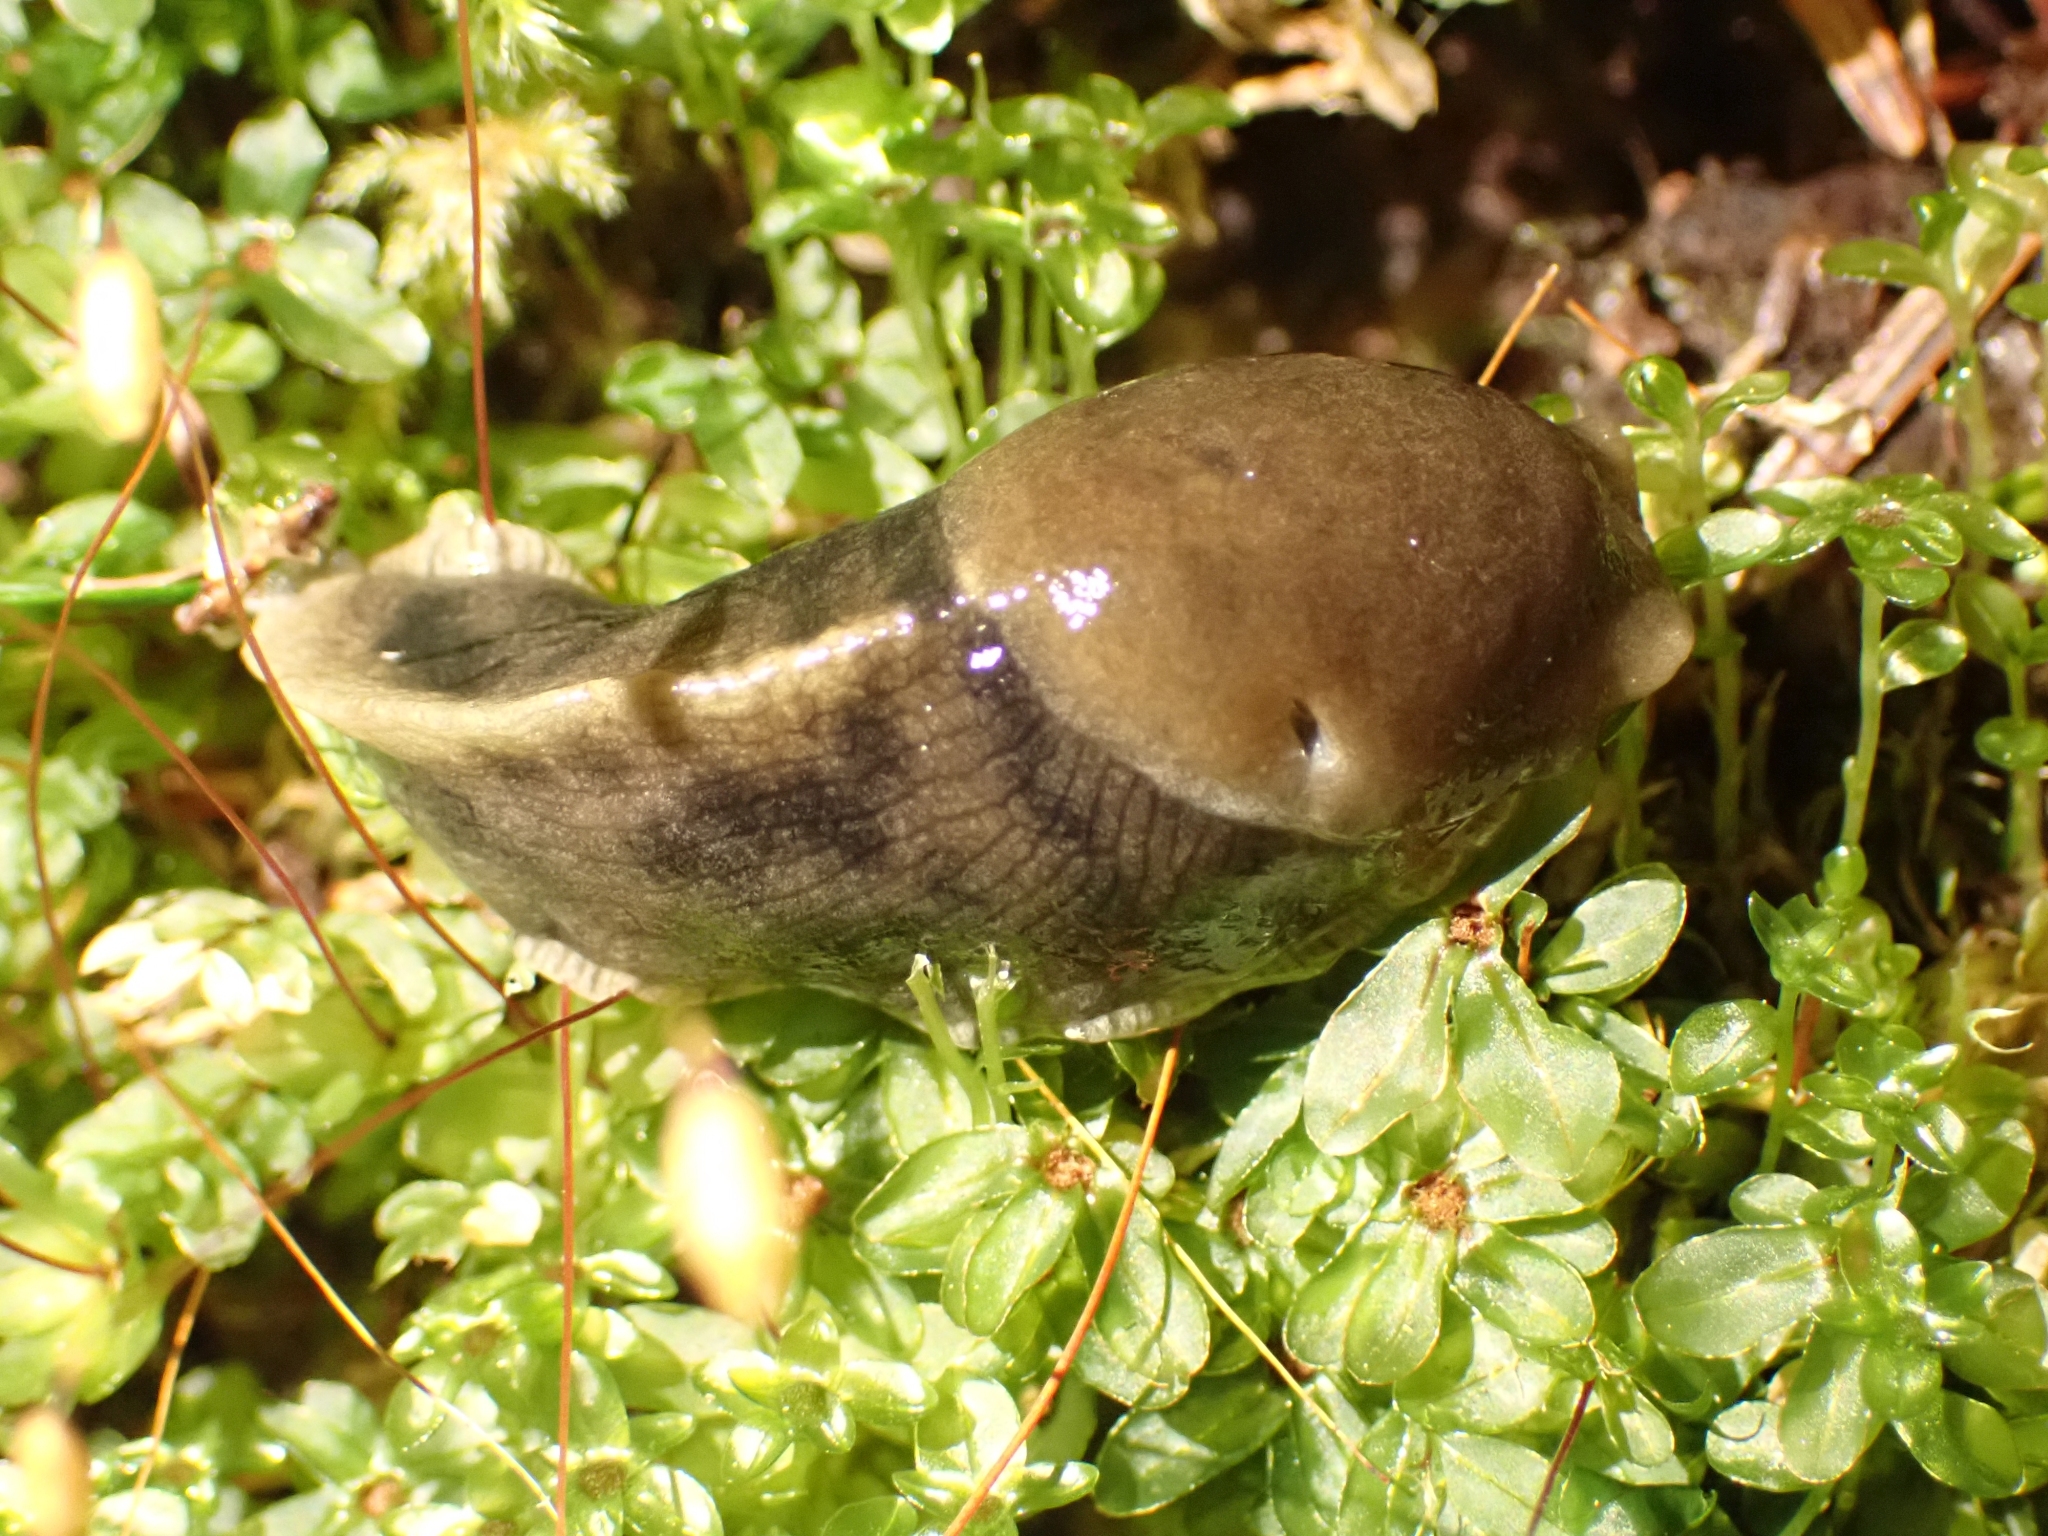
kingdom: Animalia
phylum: Mollusca
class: Gastropoda
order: Stylommatophora
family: Ariolimacidae
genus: Ariolimax
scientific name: Ariolimax columbianus
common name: Pacific banana slug
